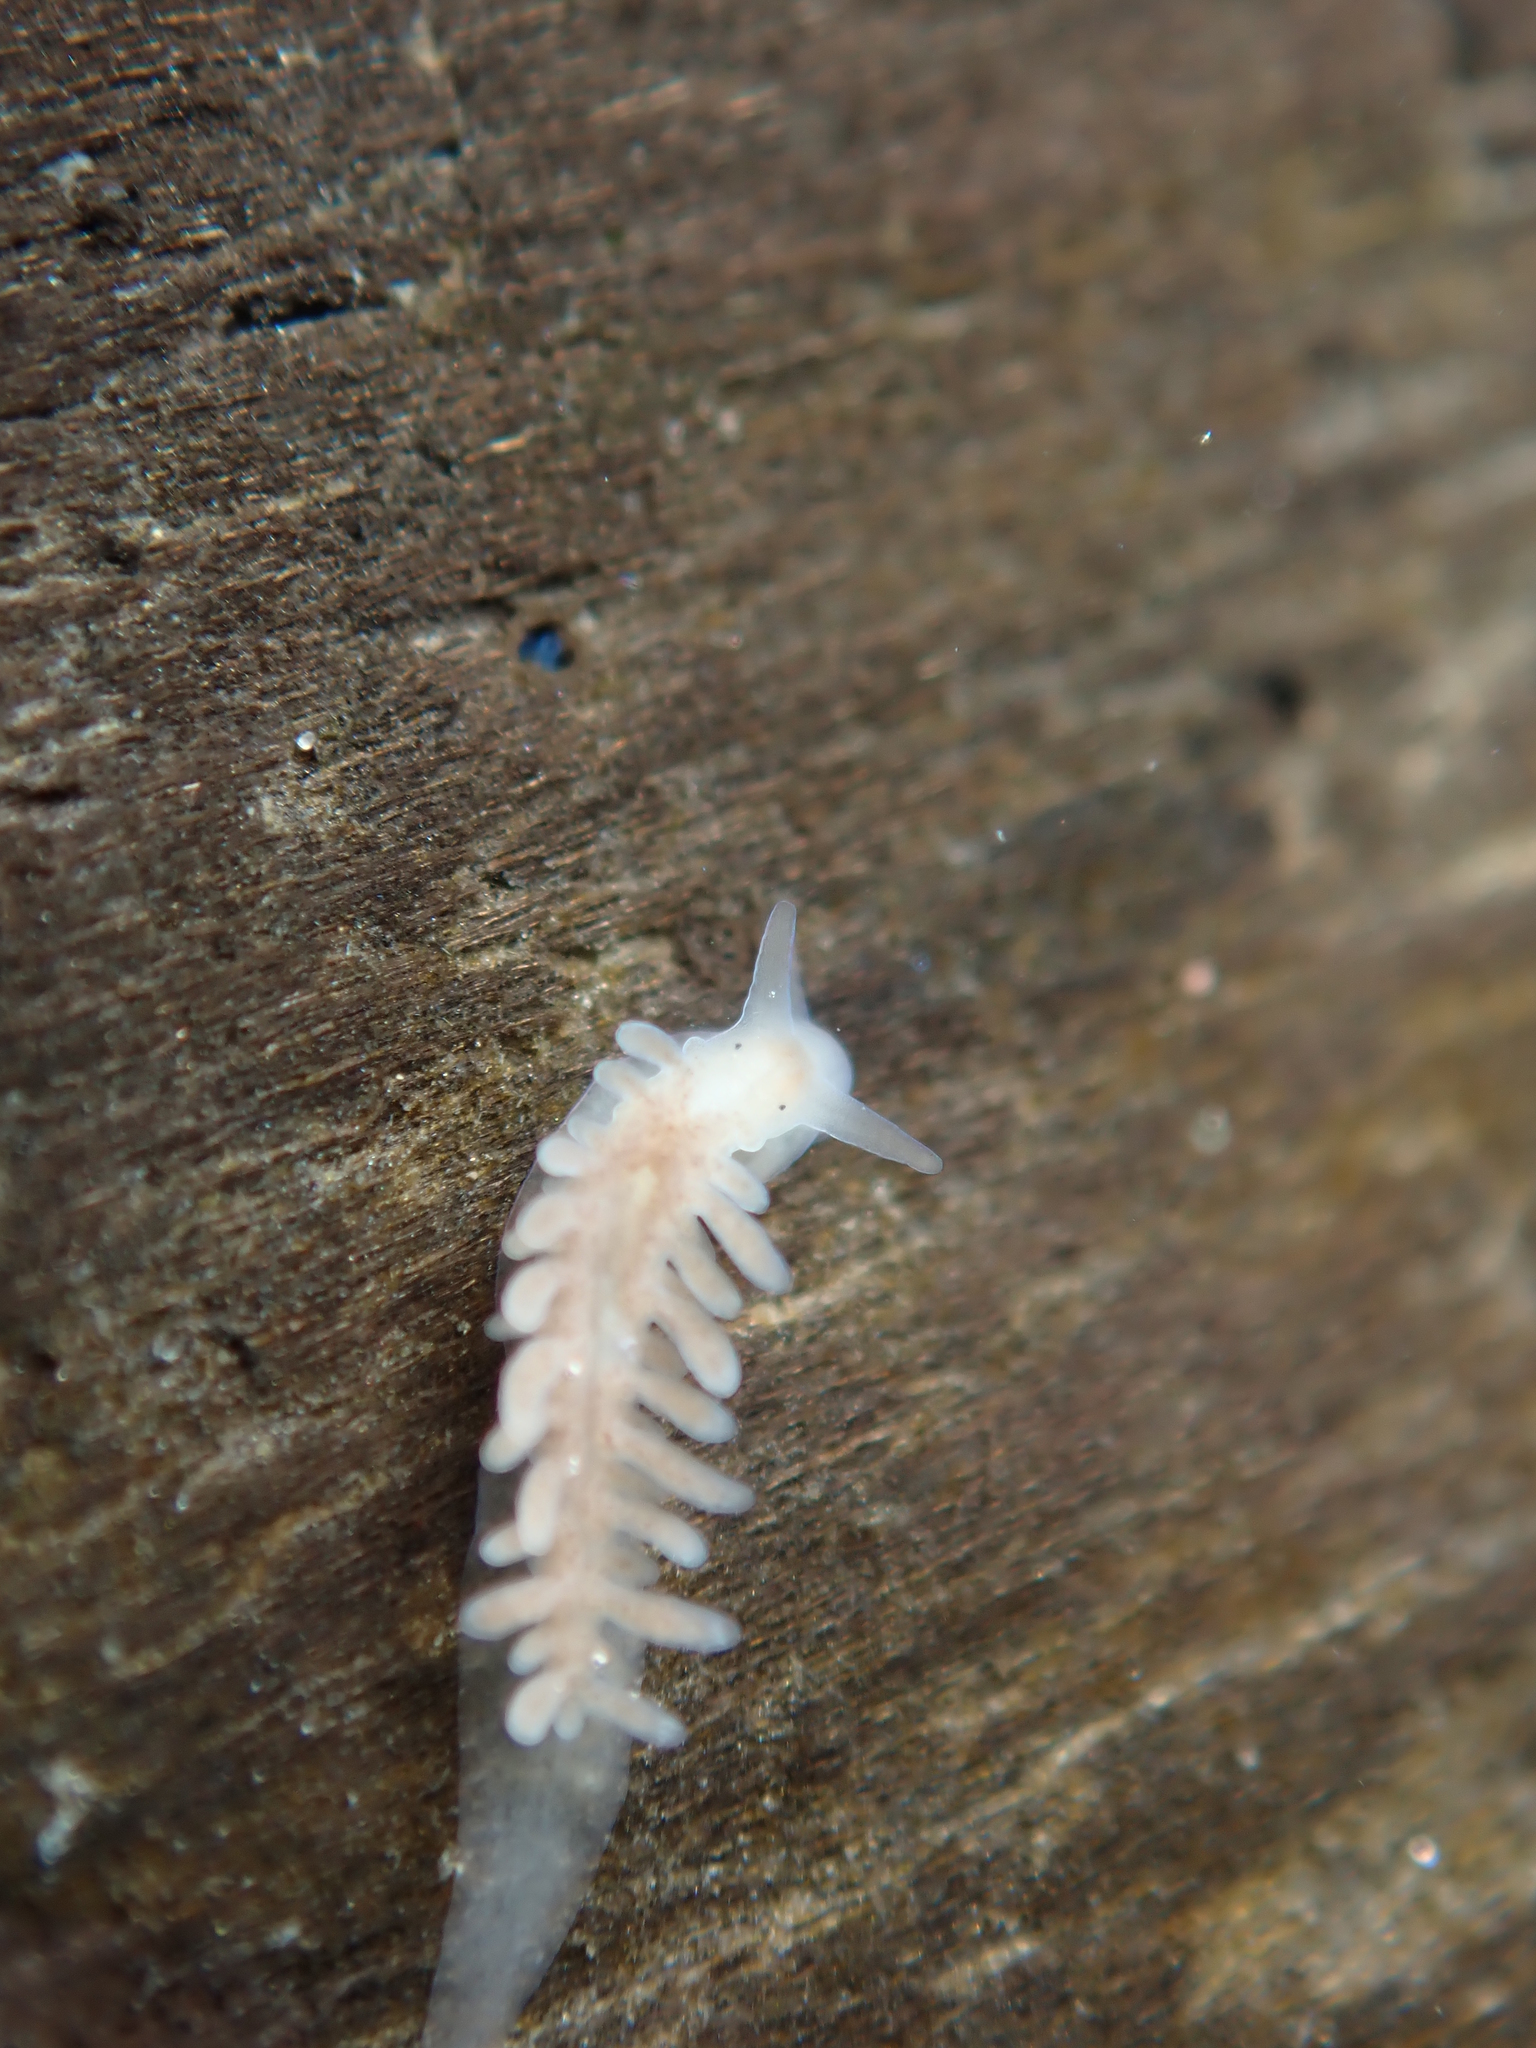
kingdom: Animalia
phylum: Mollusca
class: Gastropoda
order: Nudibranchia
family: Fionidae
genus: Fiona
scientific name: Fiona pinnata
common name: Fiona
